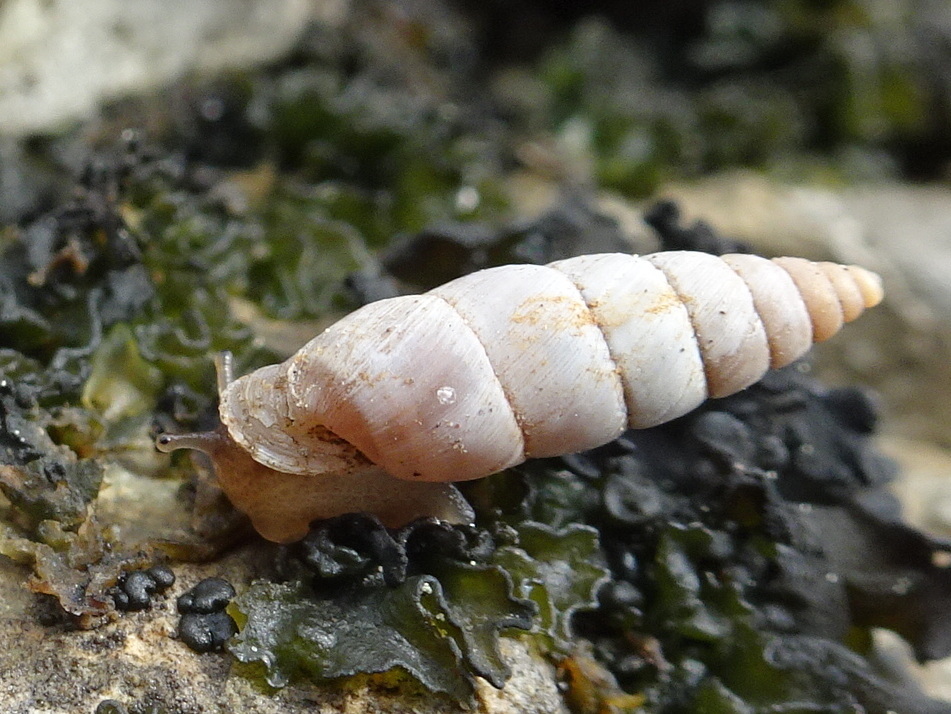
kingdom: Animalia
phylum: Mollusca
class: Gastropoda
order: Stylommatophora
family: Chondrinidae
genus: Solatopupa
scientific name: Solatopupa similis
